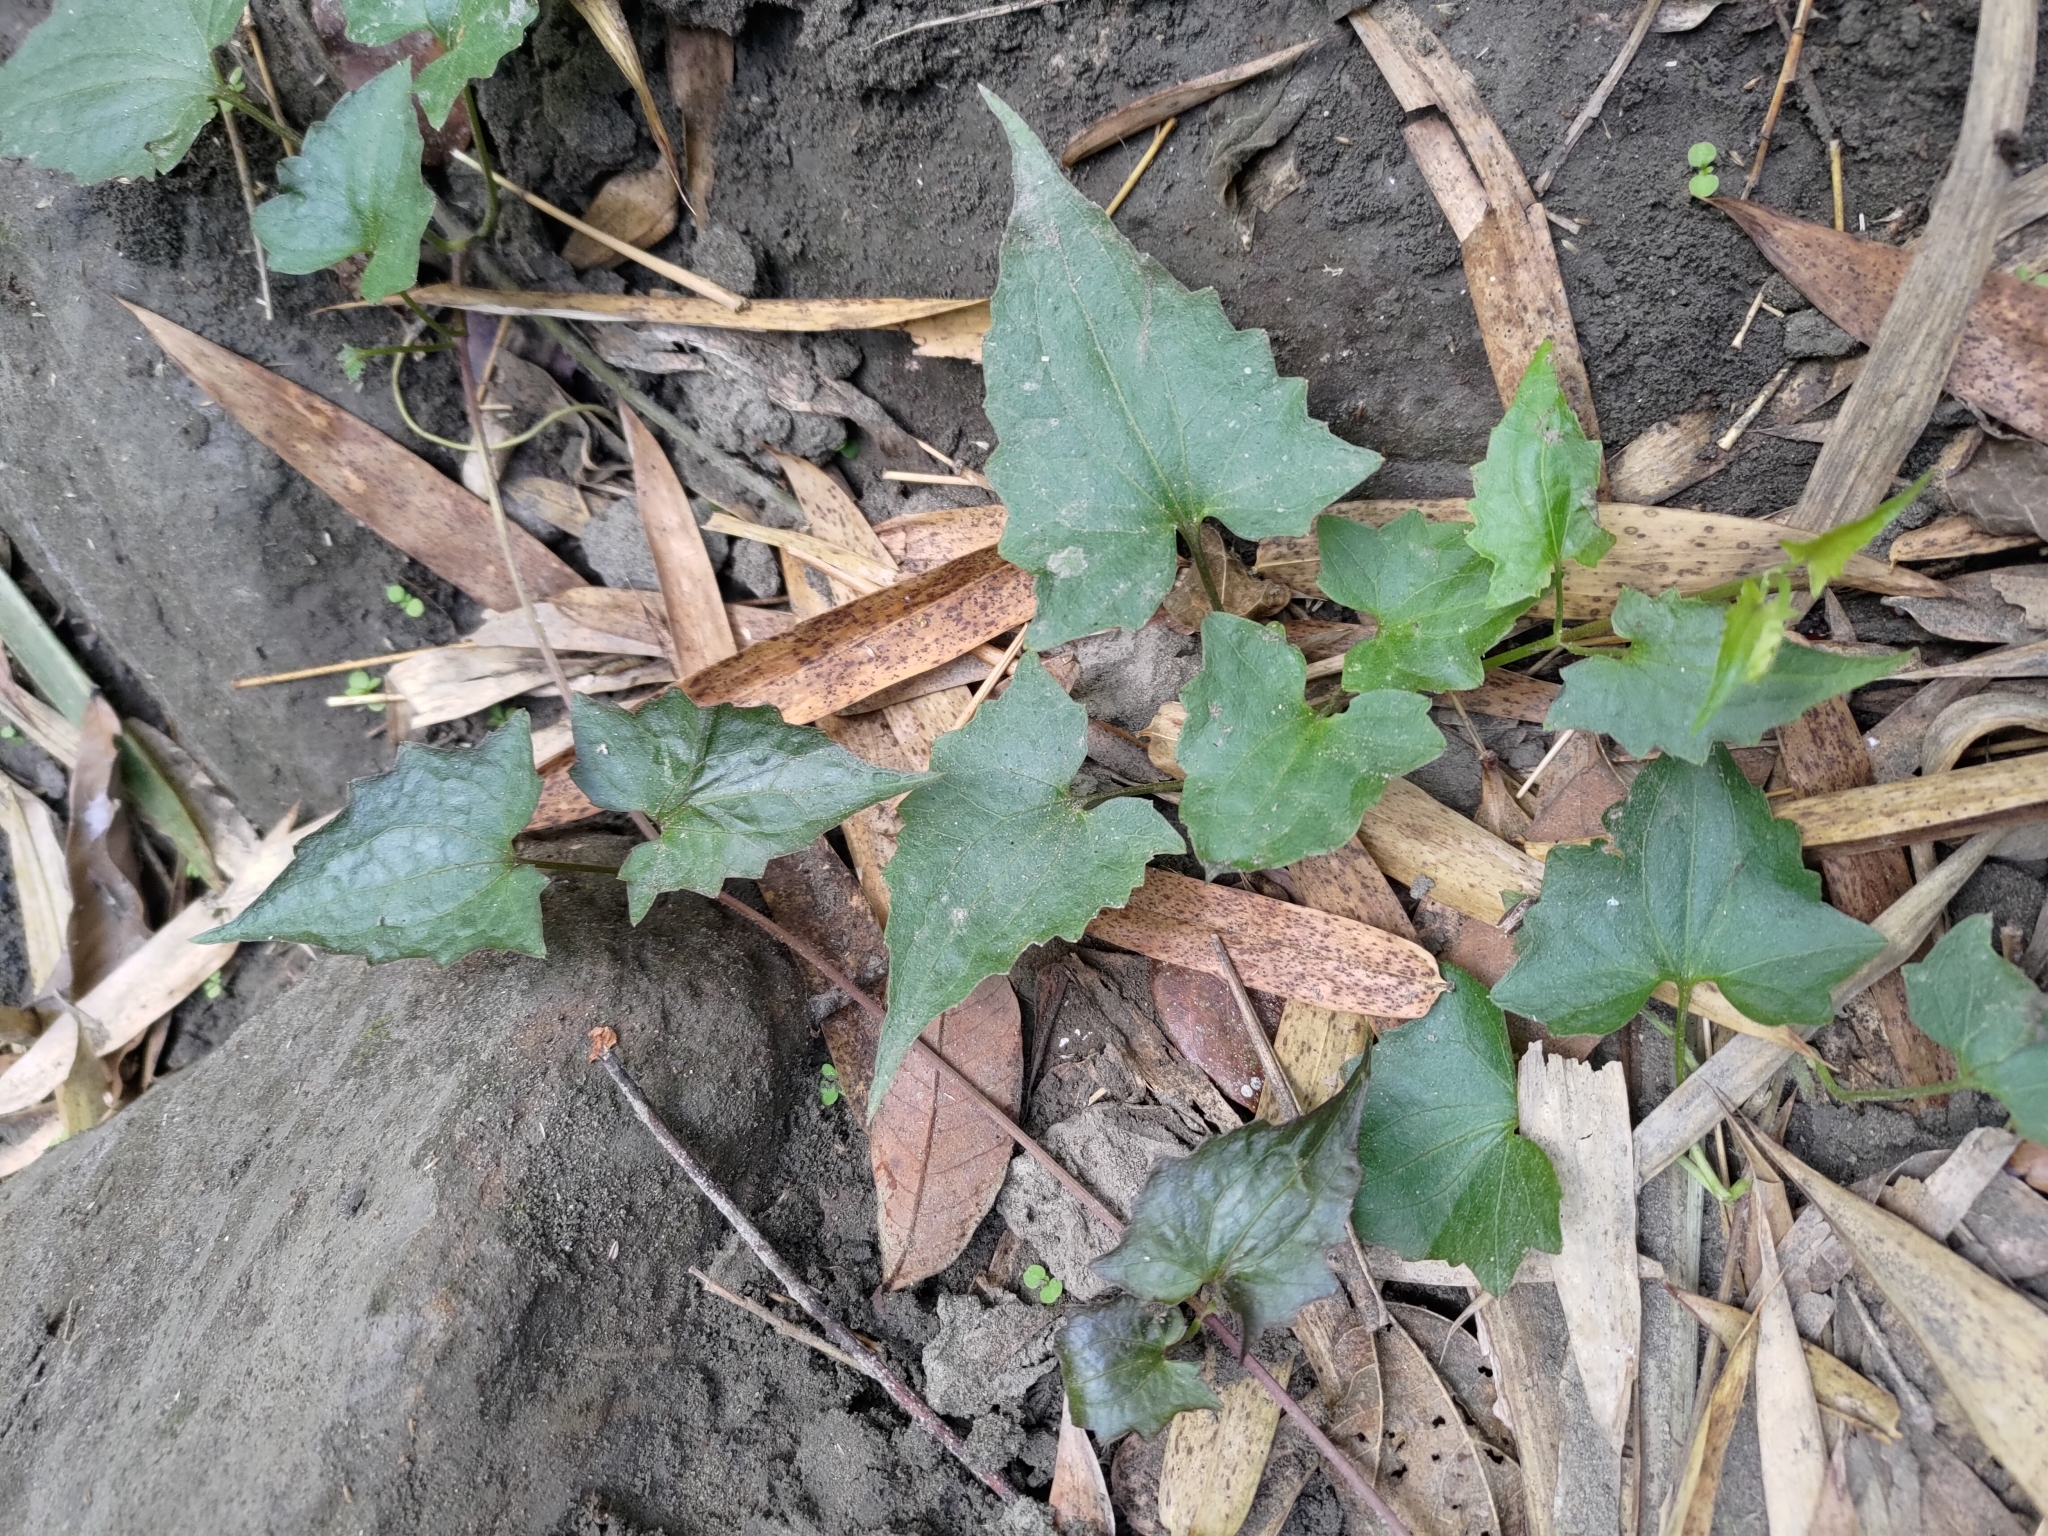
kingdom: Plantae
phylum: Tracheophyta
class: Magnoliopsida
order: Asterales
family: Asteraceae
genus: Mikania
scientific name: Mikania micrantha
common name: Mile-a-minute
